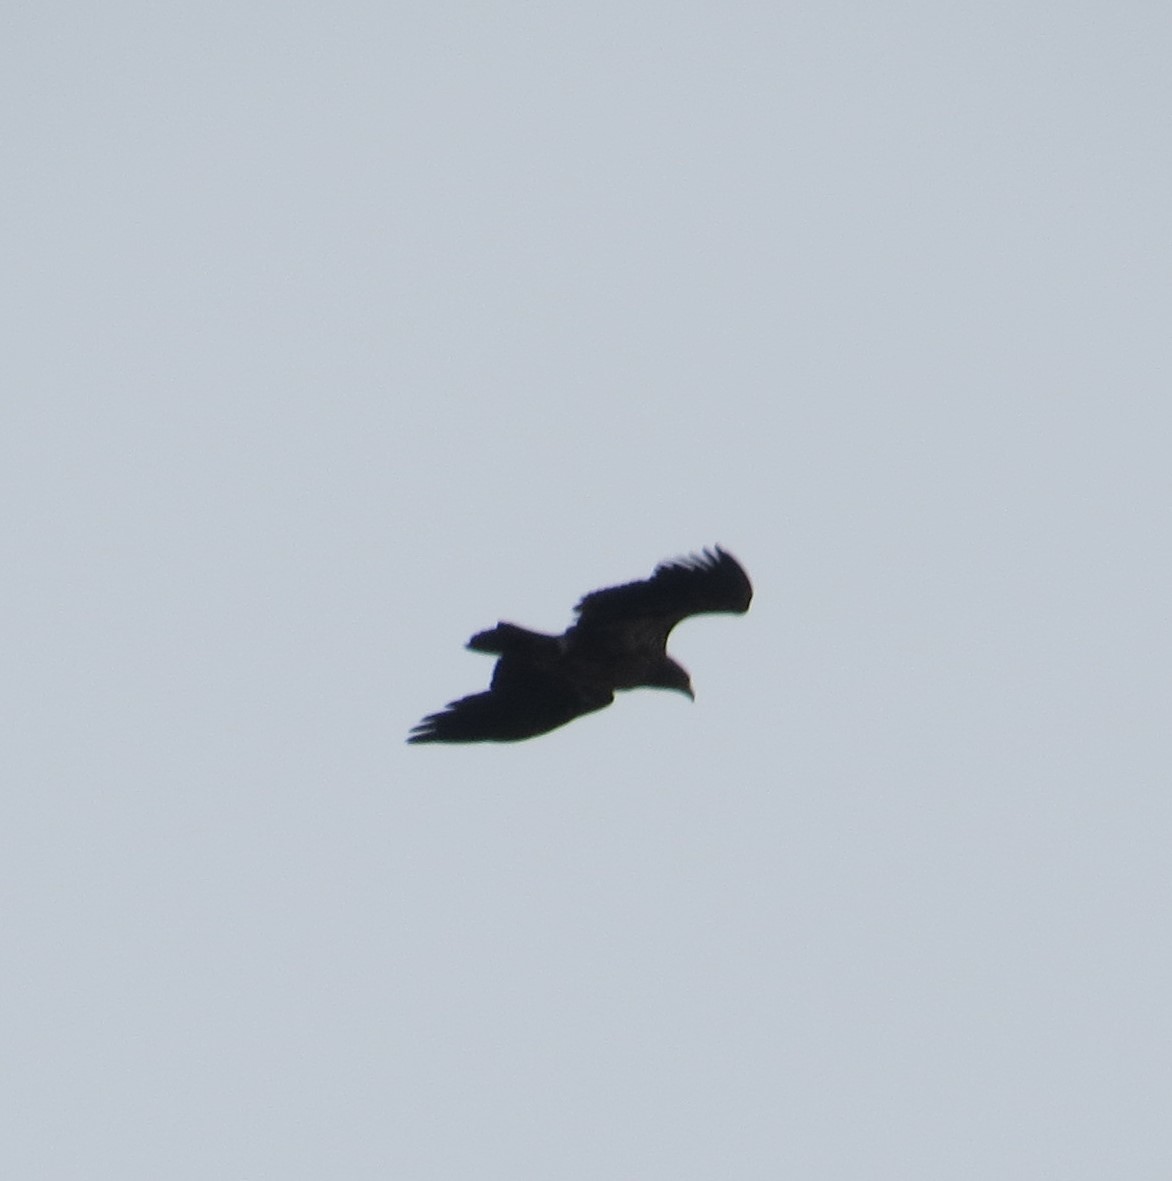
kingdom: Animalia
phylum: Chordata
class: Aves
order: Accipitriformes
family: Accipitridae
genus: Haliaeetus
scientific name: Haliaeetus leucocephalus
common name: Bald eagle
